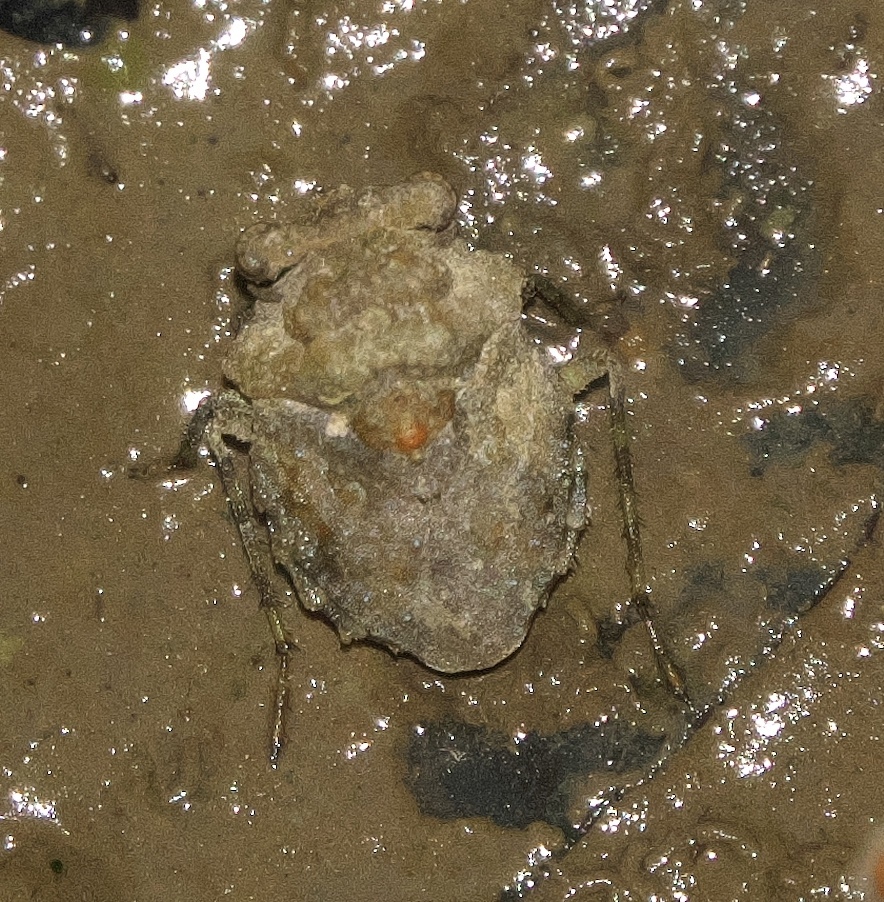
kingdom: Animalia
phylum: Arthropoda
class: Insecta
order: Hemiptera
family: Gelastocoridae
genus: Gelastocoris
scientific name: Gelastocoris oculatus
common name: Toad bug
